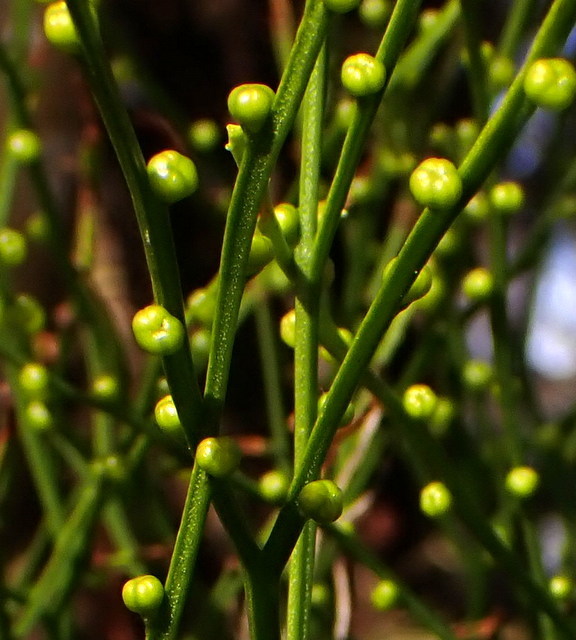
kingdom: Plantae
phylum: Tracheophyta
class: Polypodiopsida
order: Psilotales
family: Psilotaceae
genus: Psilotum
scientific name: Psilotum nudum
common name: Skeleton fork fern
